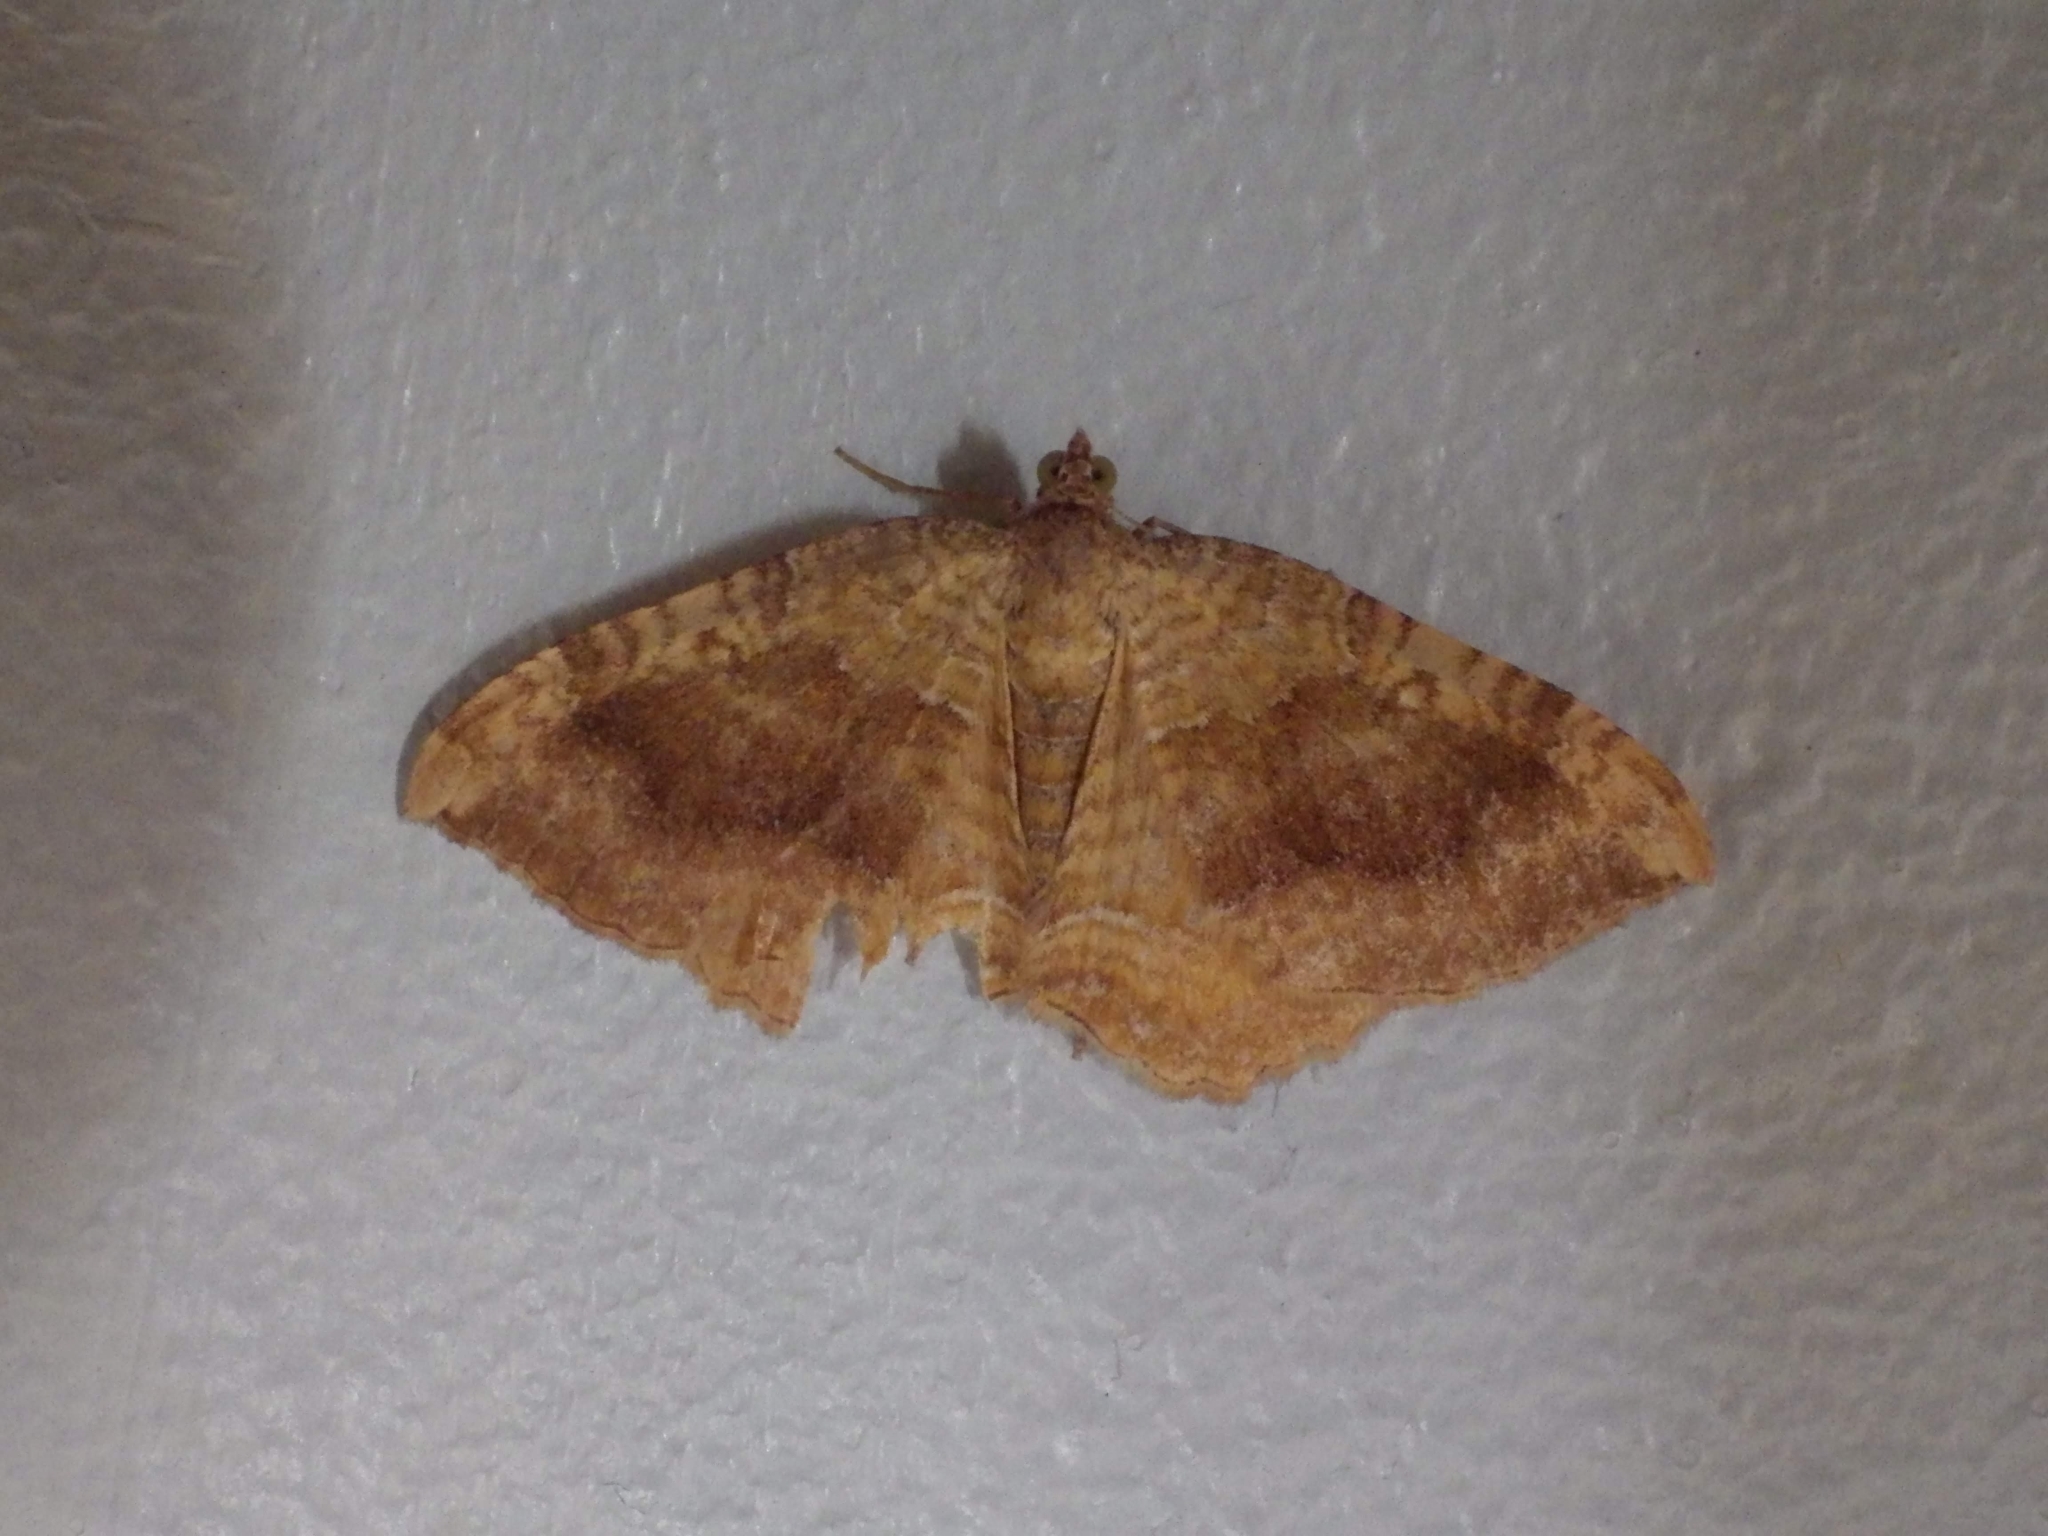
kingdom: Animalia
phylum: Arthropoda
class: Insecta
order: Lepidoptera
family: Geometridae
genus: Camptogramma
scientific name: Camptogramma bilineata
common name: Yellow shell
